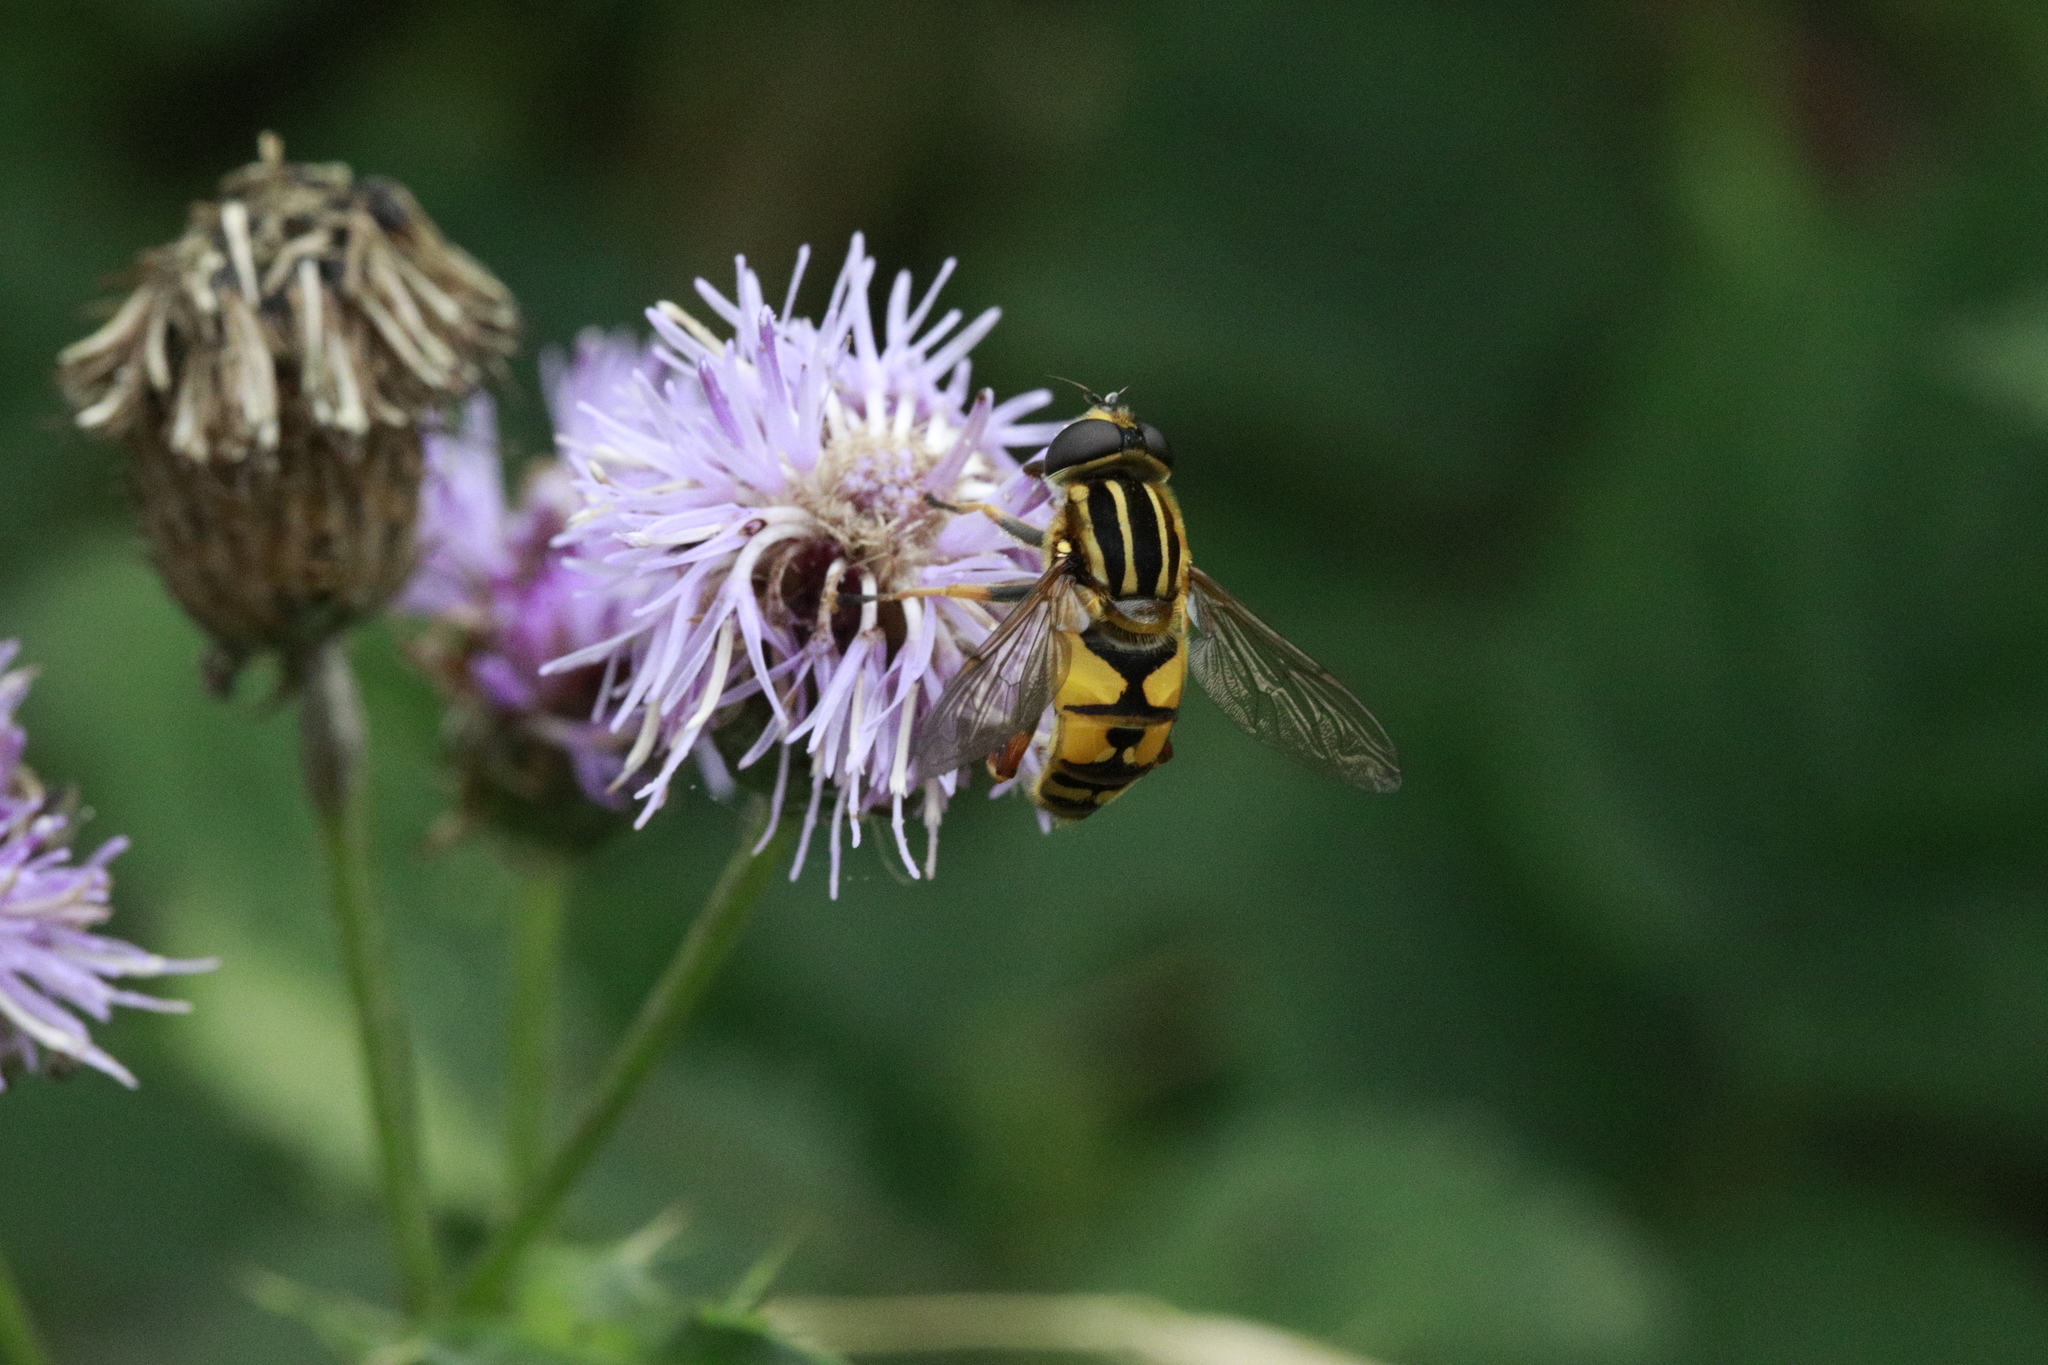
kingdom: Animalia
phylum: Arthropoda
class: Insecta
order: Diptera
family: Syrphidae
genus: Helophilus
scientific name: Helophilus pendulus
